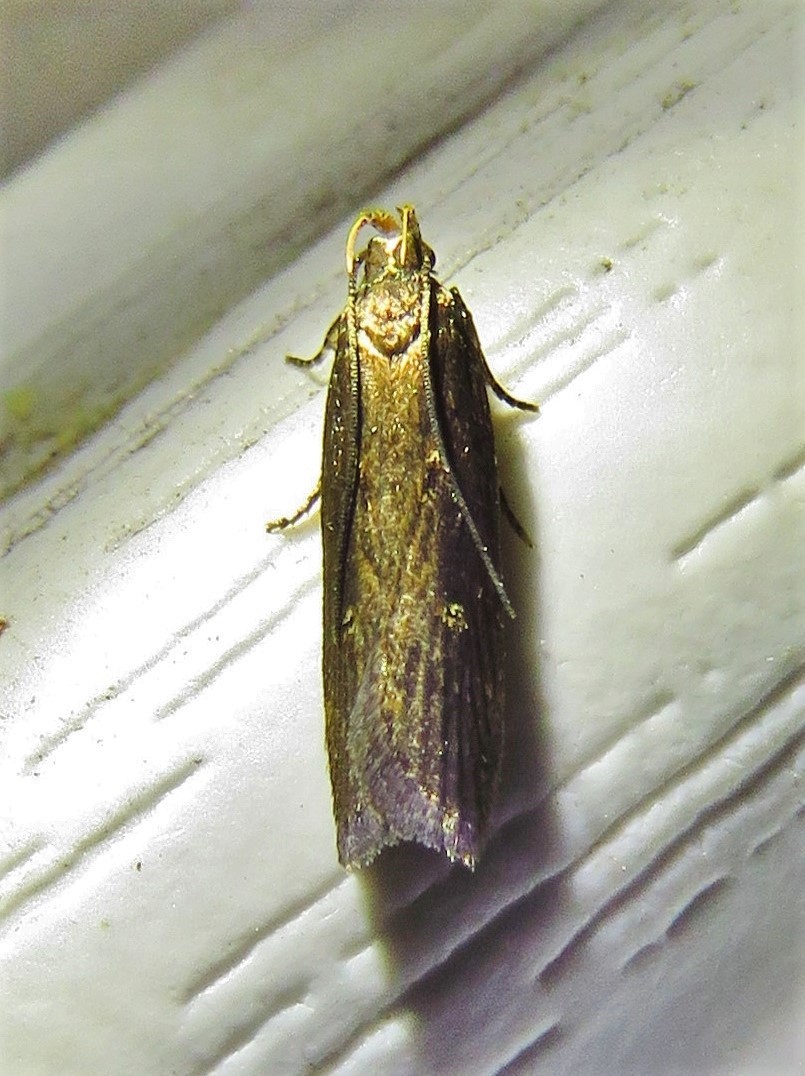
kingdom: Animalia
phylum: Arthropoda
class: Insecta
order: Lepidoptera
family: Gelechiidae
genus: Chionodes
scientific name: Chionodes discoocellella
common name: Eye-ringed chionodes moth
